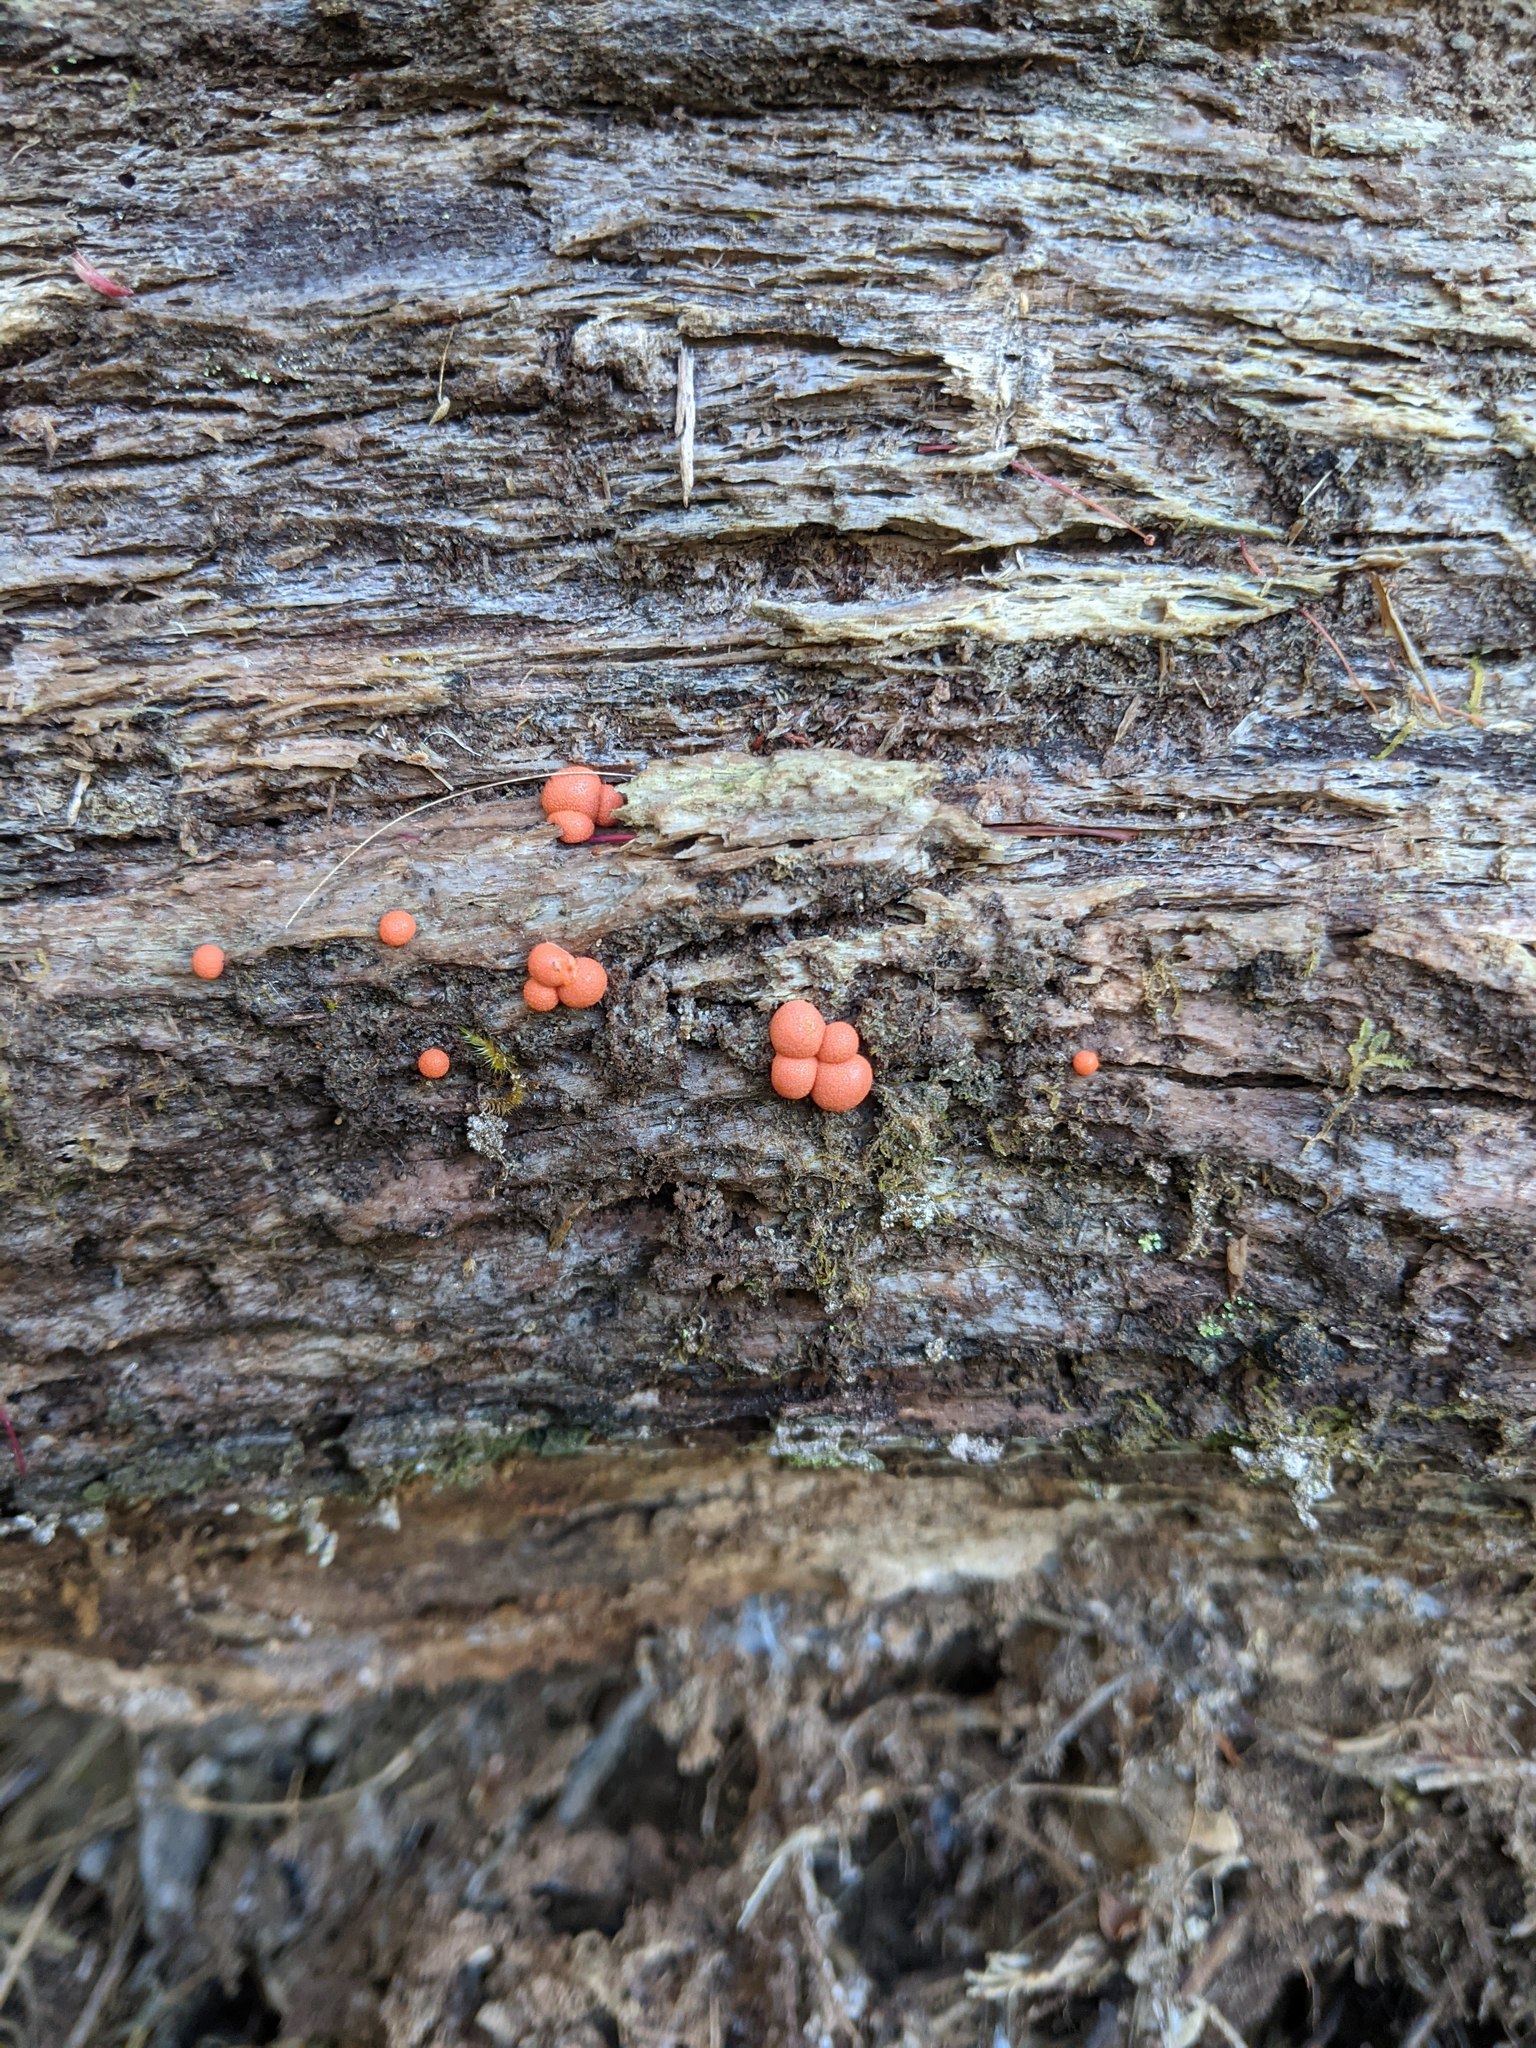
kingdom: Protozoa
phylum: Mycetozoa
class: Myxomycetes
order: Cribrariales
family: Tubiferaceae
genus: Lycogala
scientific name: Lycogala epidendrum
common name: Wolf's milk
